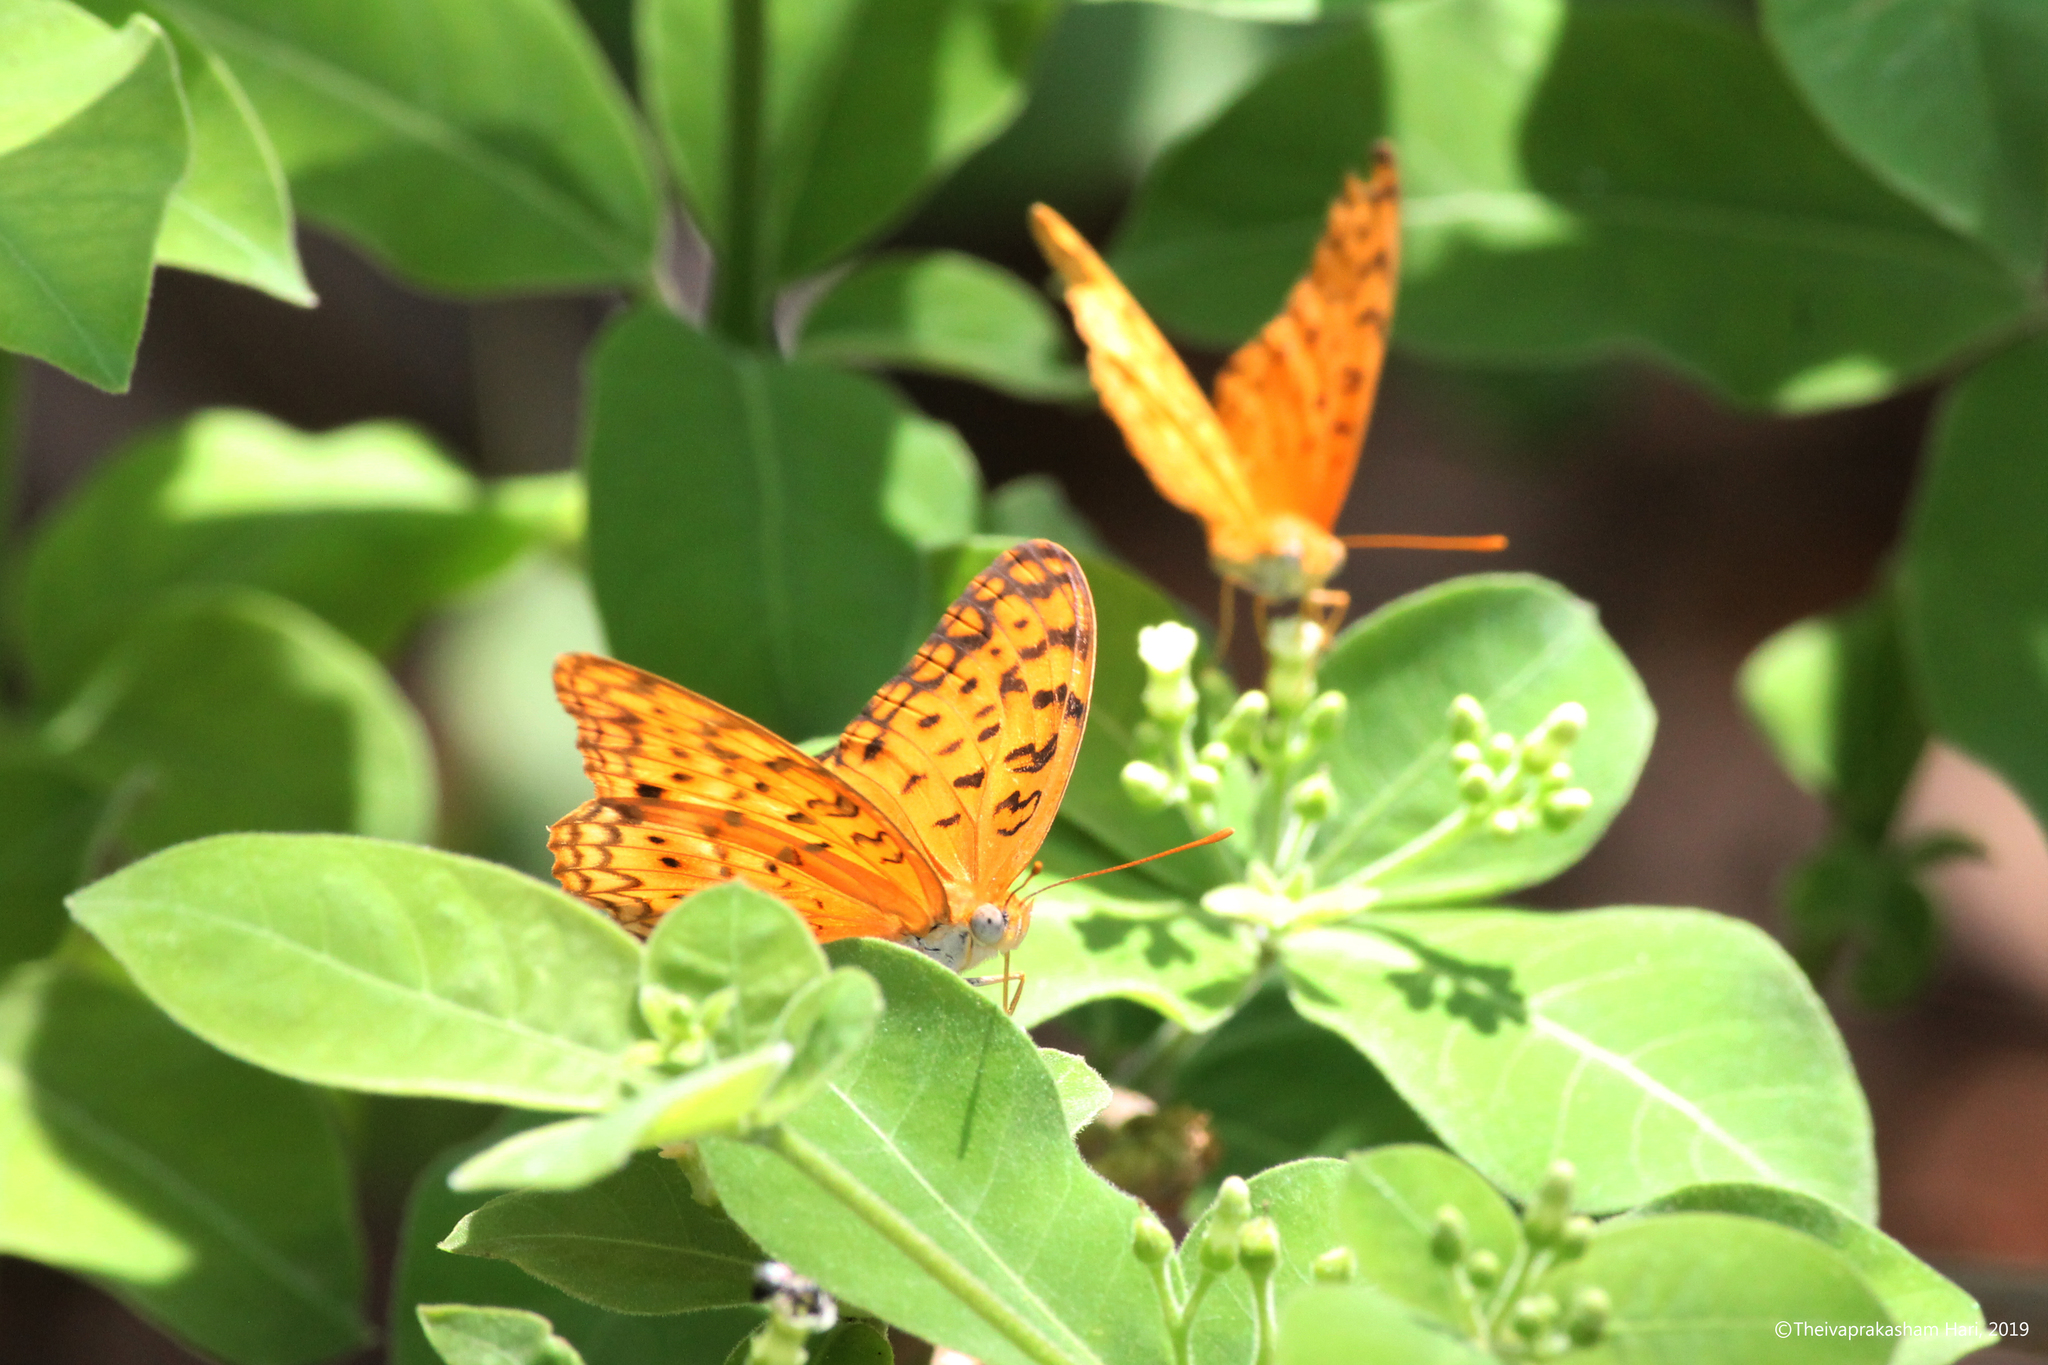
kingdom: Animalia
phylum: Arthropoda
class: Insecta
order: Lepidoptera
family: Nymphalidae
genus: Phalanta
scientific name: Phalanta phalantha
